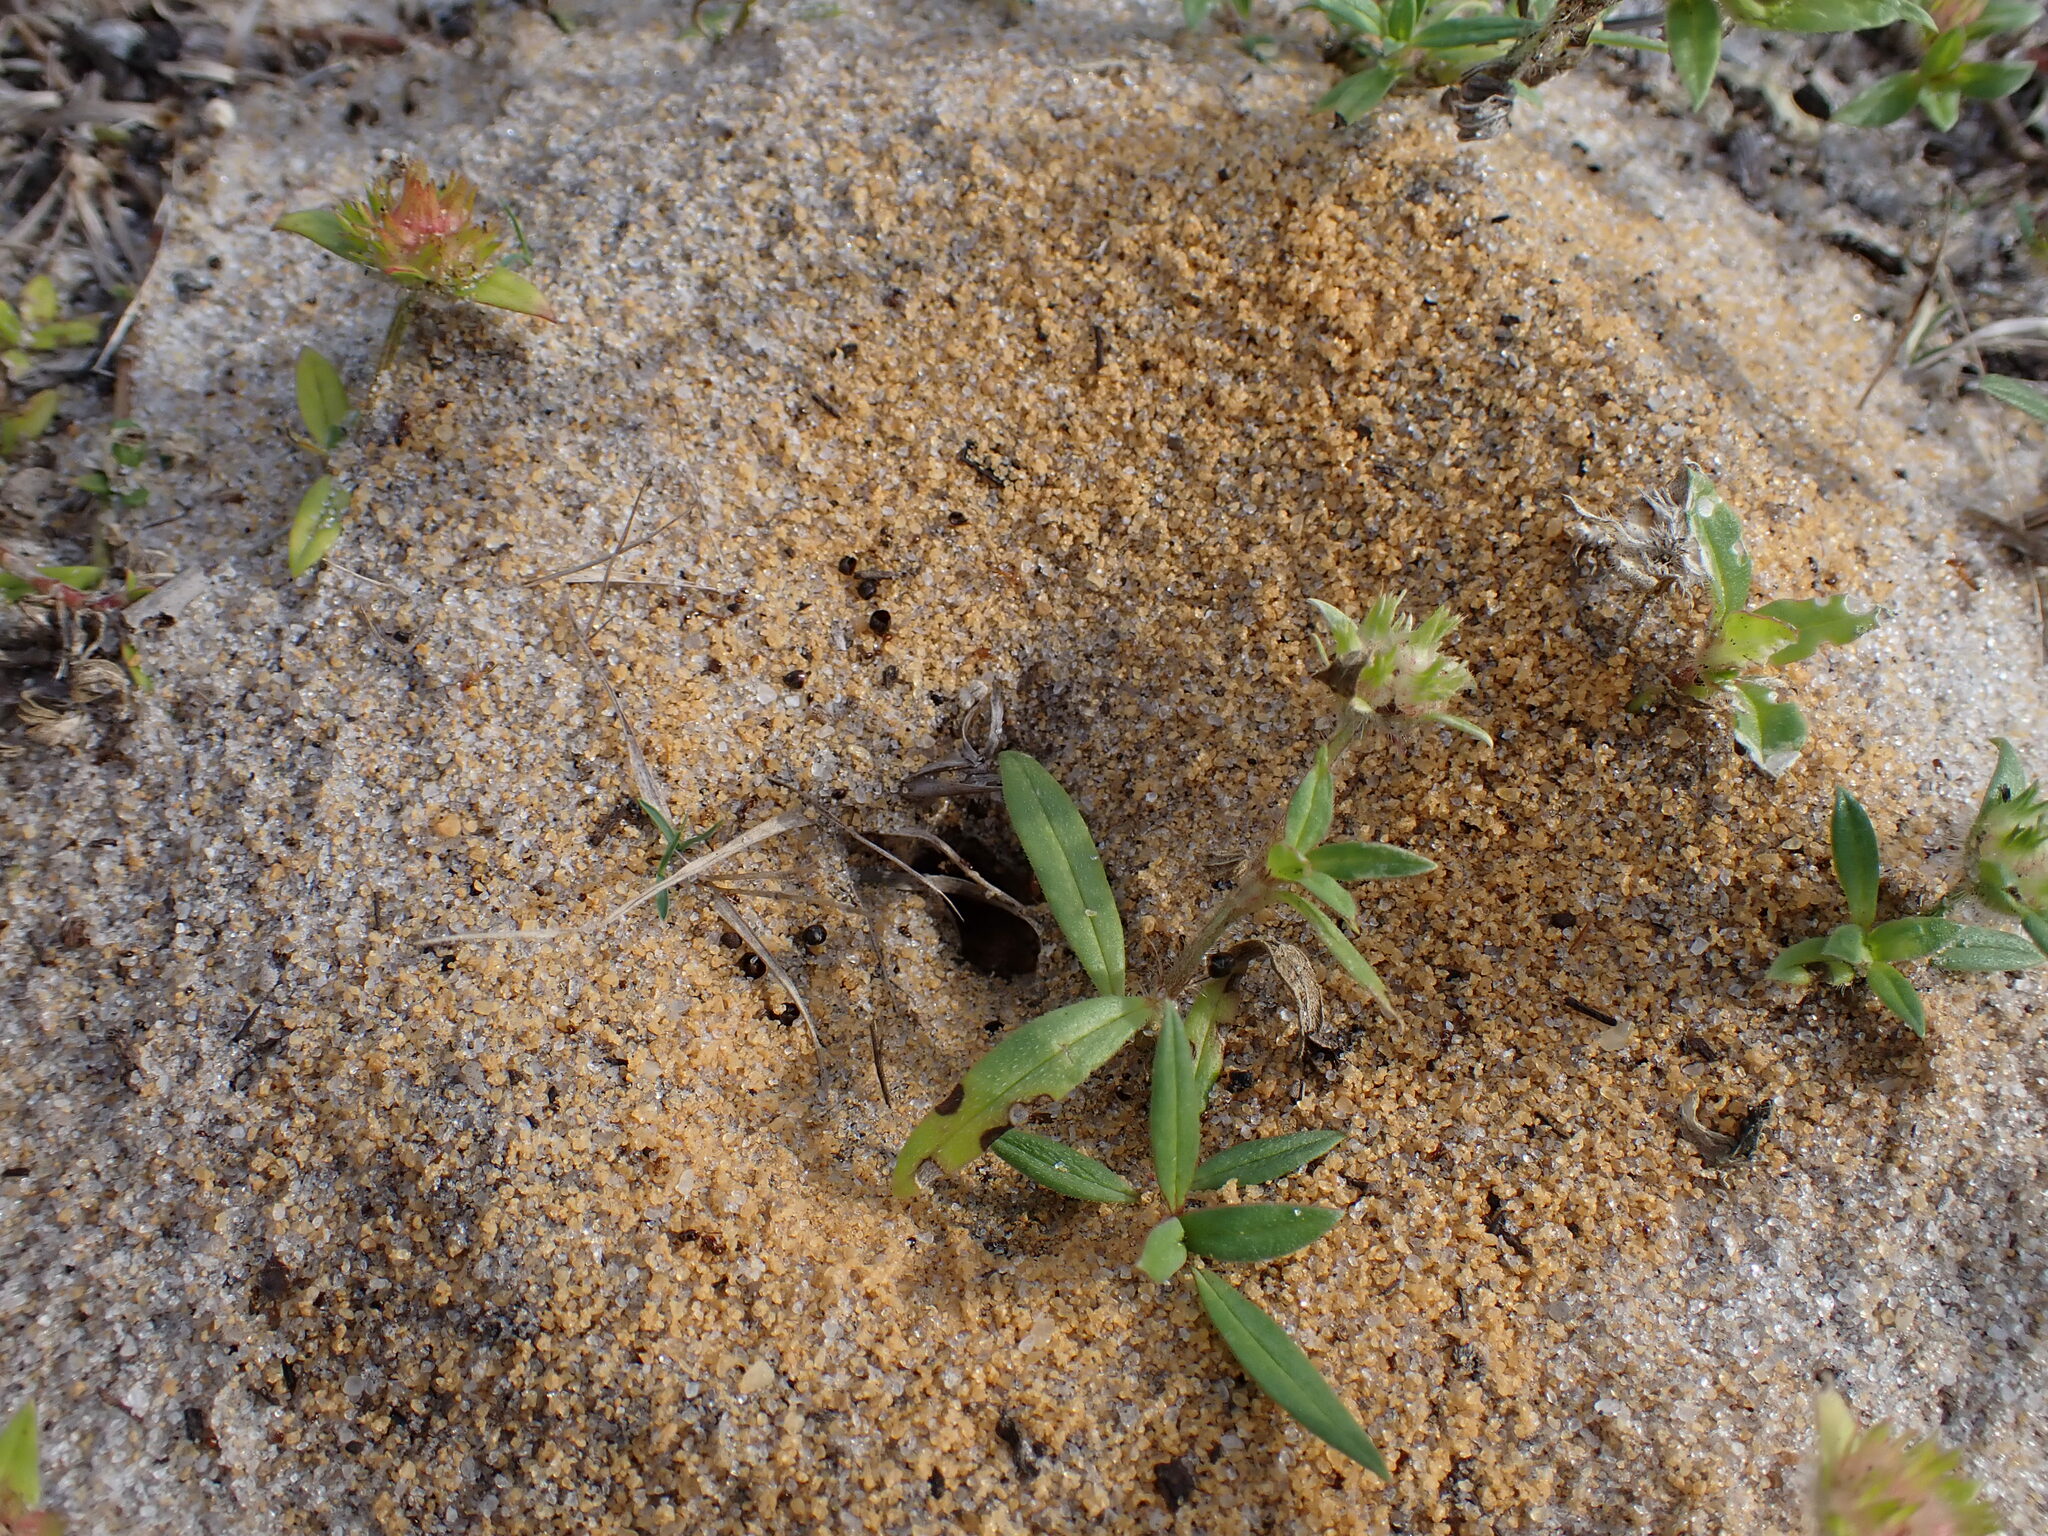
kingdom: Animalia
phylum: Arthropoda
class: Insecta
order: Hymenoptera
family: Formicidae
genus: Dorymyrmex
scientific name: Dorymyrmex bureni
